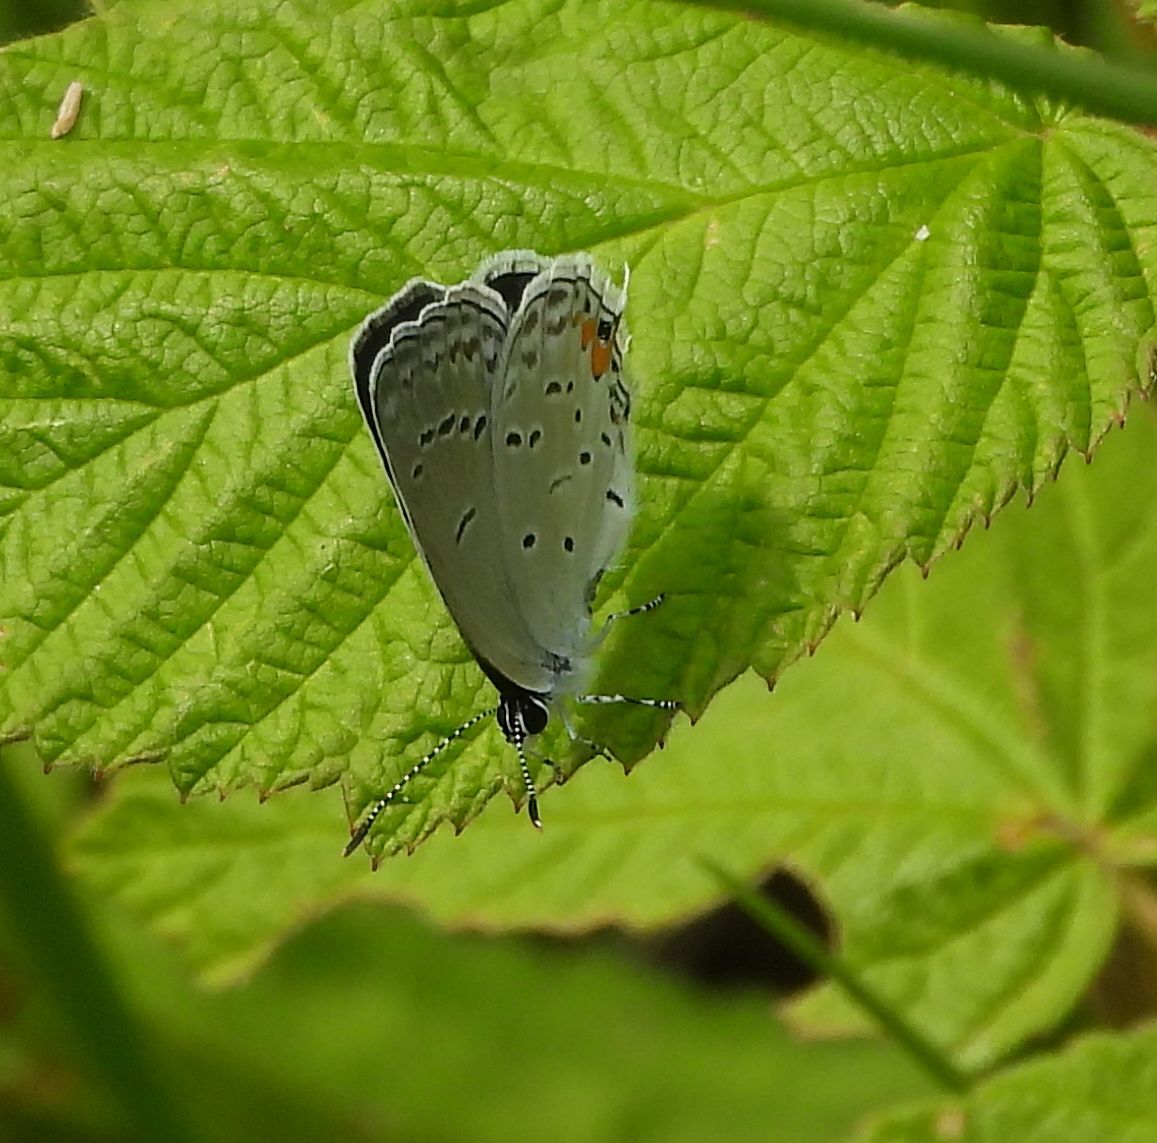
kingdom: Animalia
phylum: Arthropoda
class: Insecta
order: Lepidoptera
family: Lycaenidae
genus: Elkalyce
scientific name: Elkalyce comyntas
